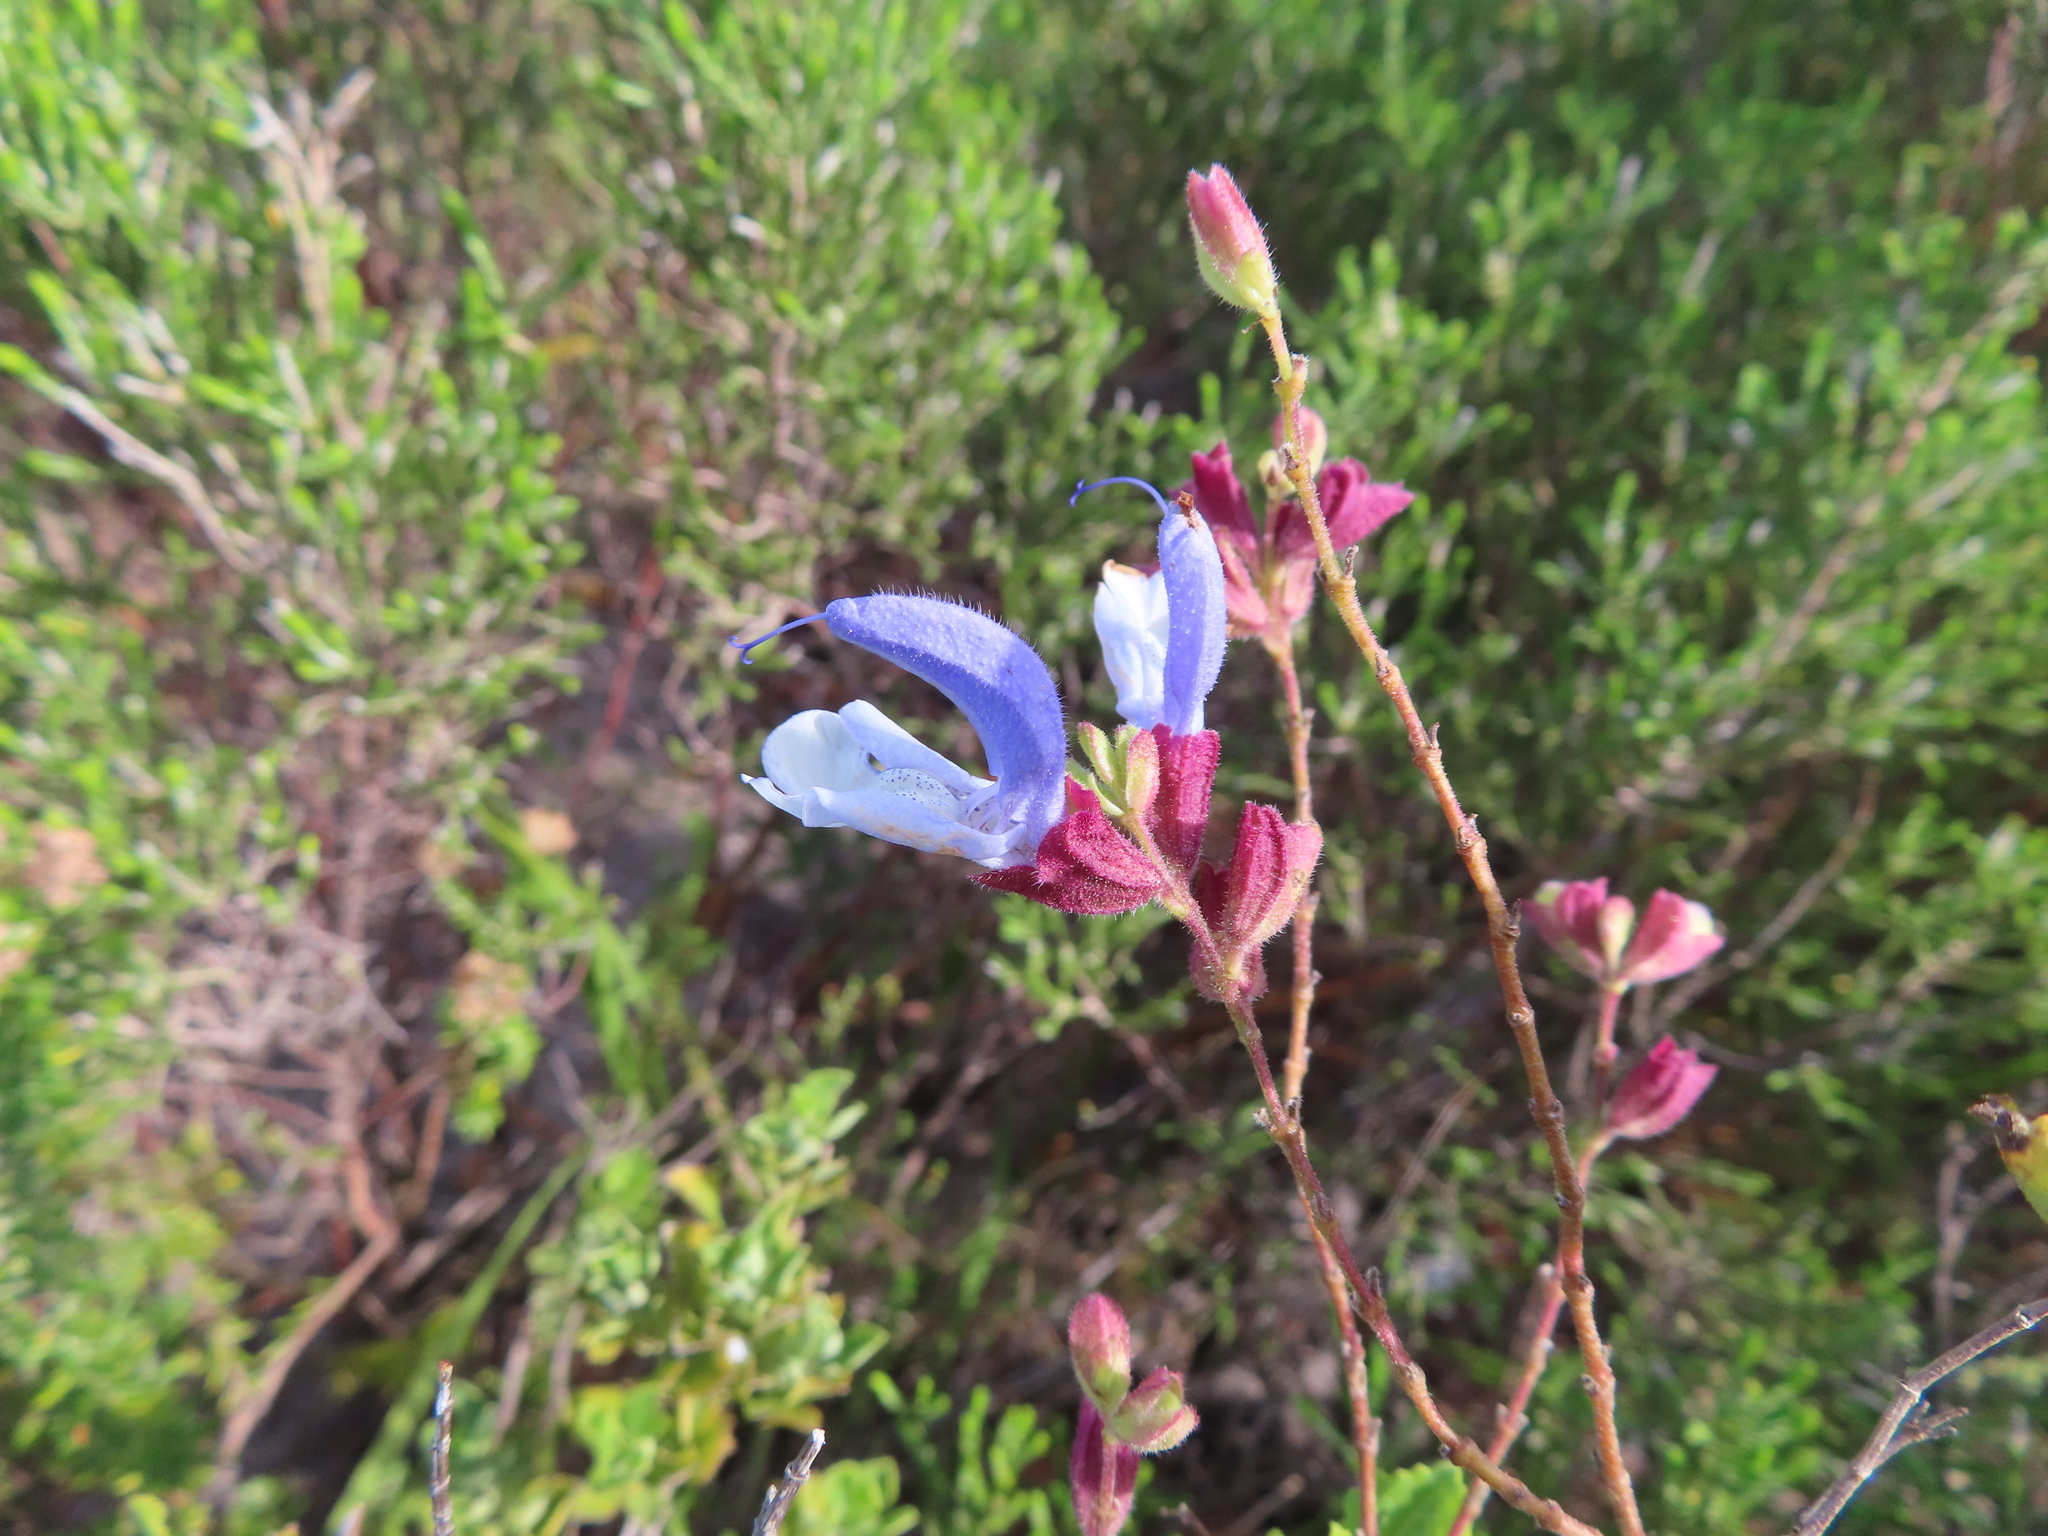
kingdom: Plantae
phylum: Tracheophyta
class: Magnoliopsida
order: Lamiales
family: Lamiaceae
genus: Salvia
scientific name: Salvia chamelaeagnea
